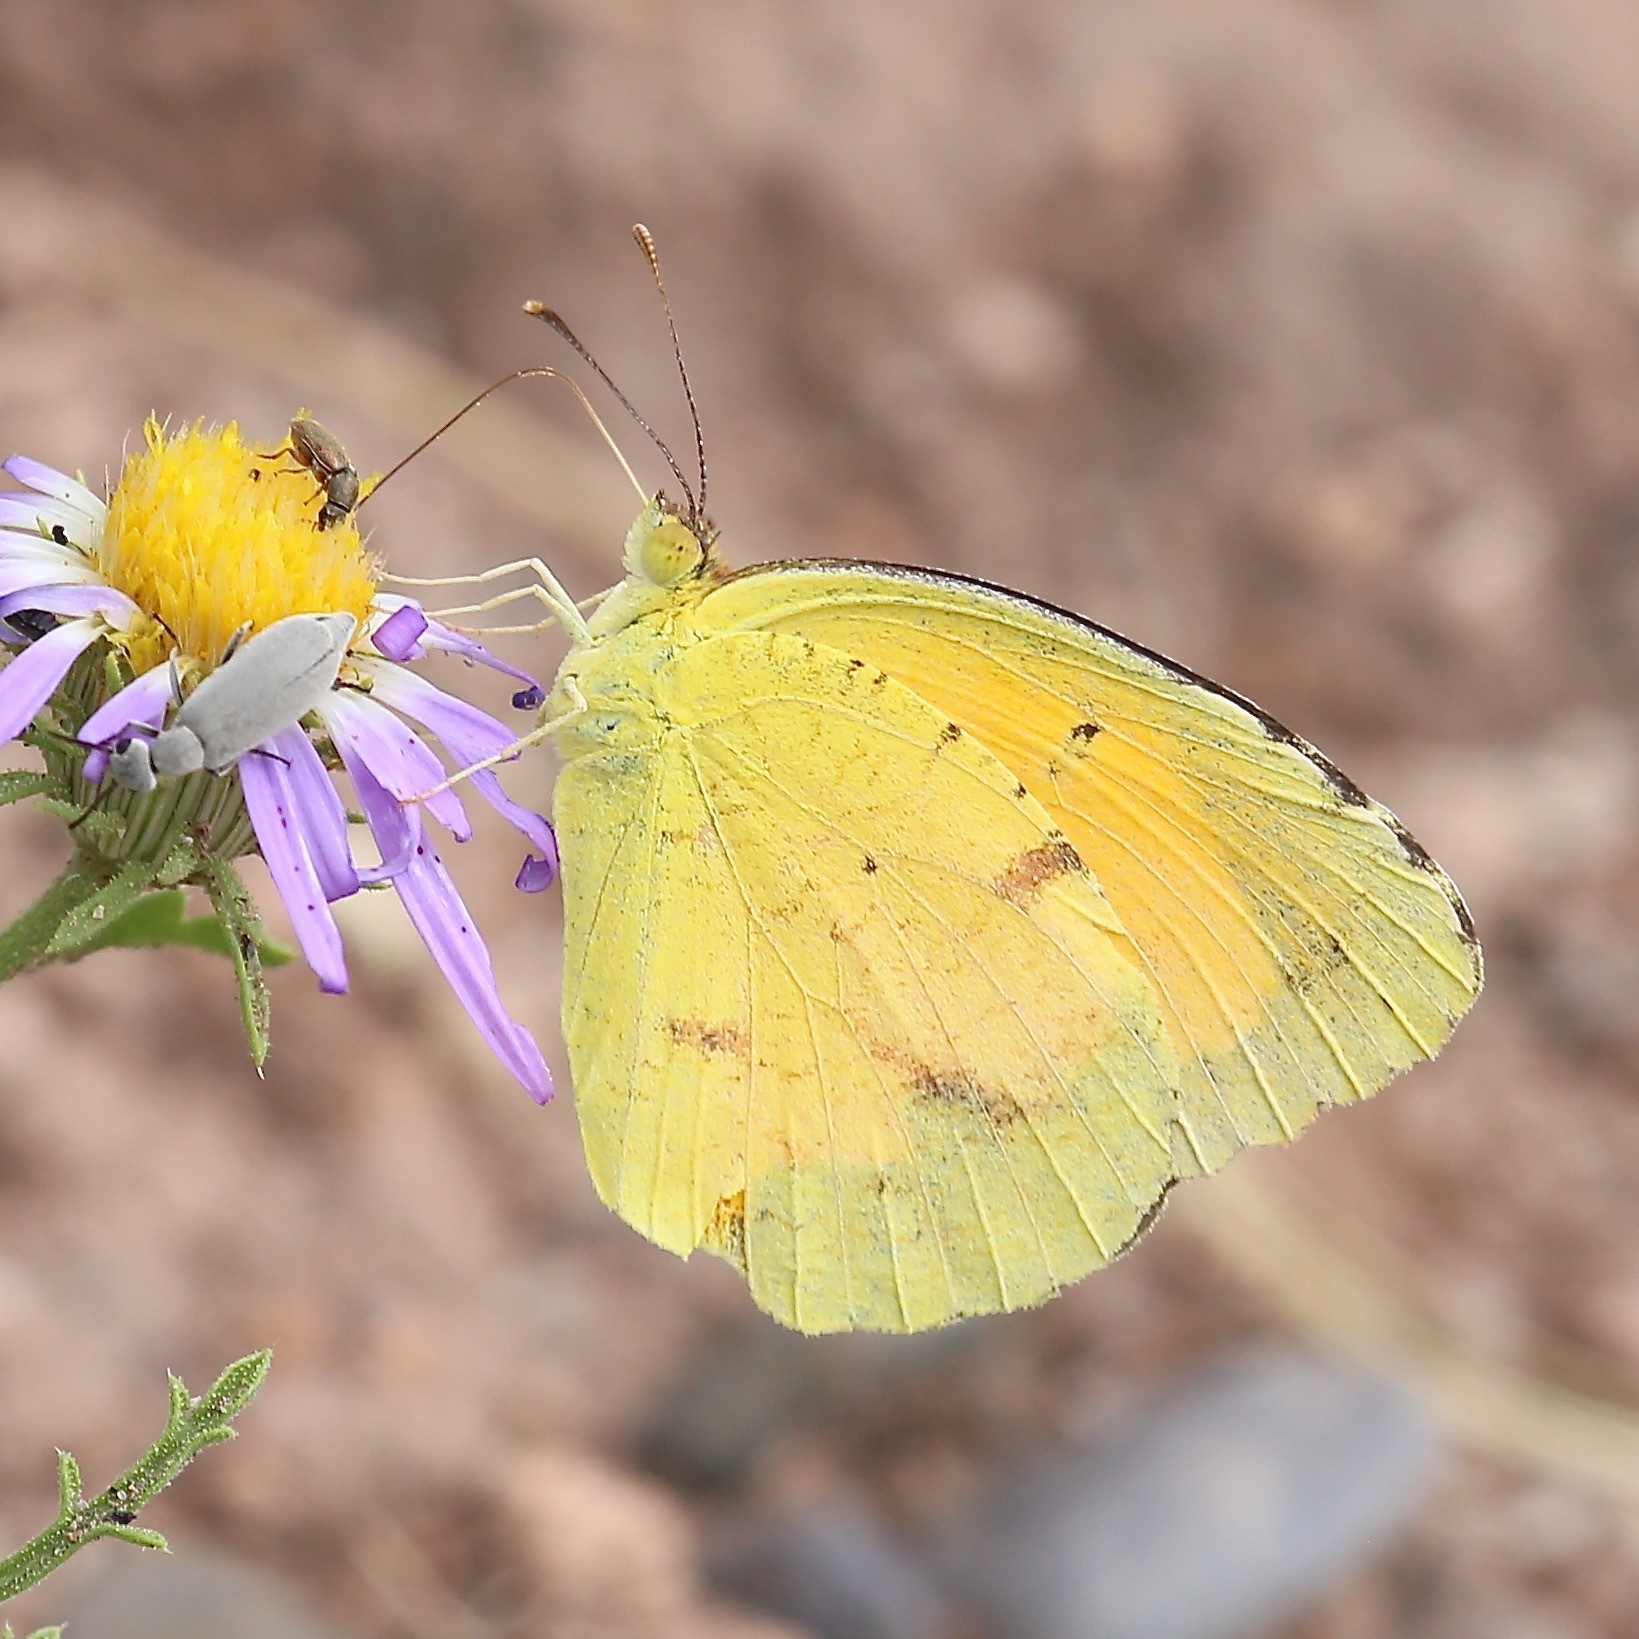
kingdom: Animalia
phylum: Arthropoda
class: Insecta
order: Lepidoptera
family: Pieridae
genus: Abaeis
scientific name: Abaeis nicippe
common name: Sleepy orange
